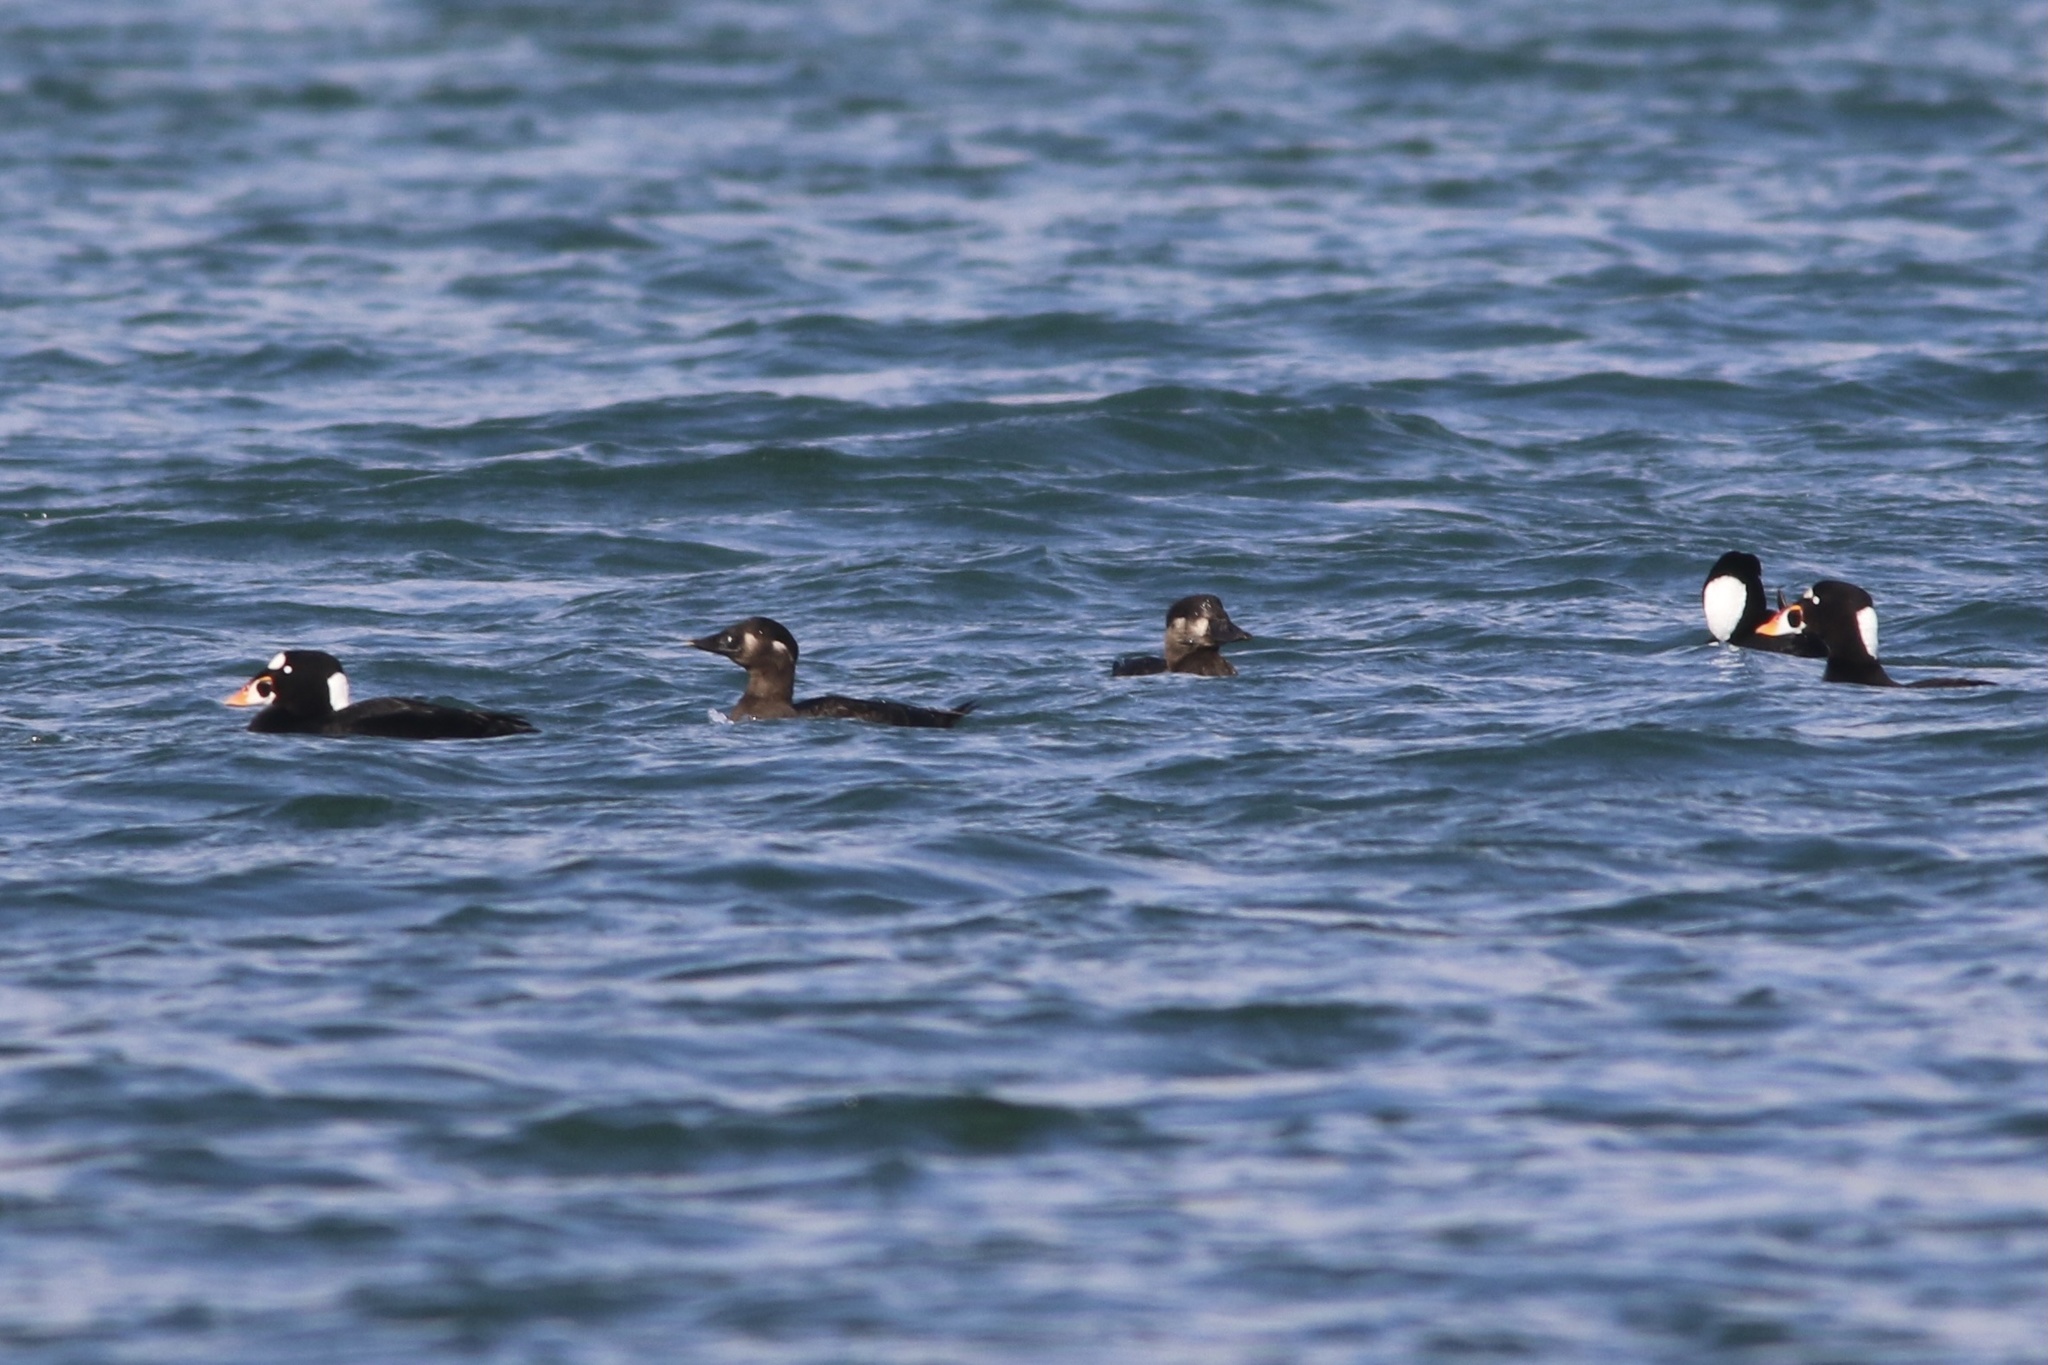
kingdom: Animalia
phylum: Chordata
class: Aves
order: Anseriformes
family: Anatidae
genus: Melanitta
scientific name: Melanitta perspicillata
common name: Surf scoter
